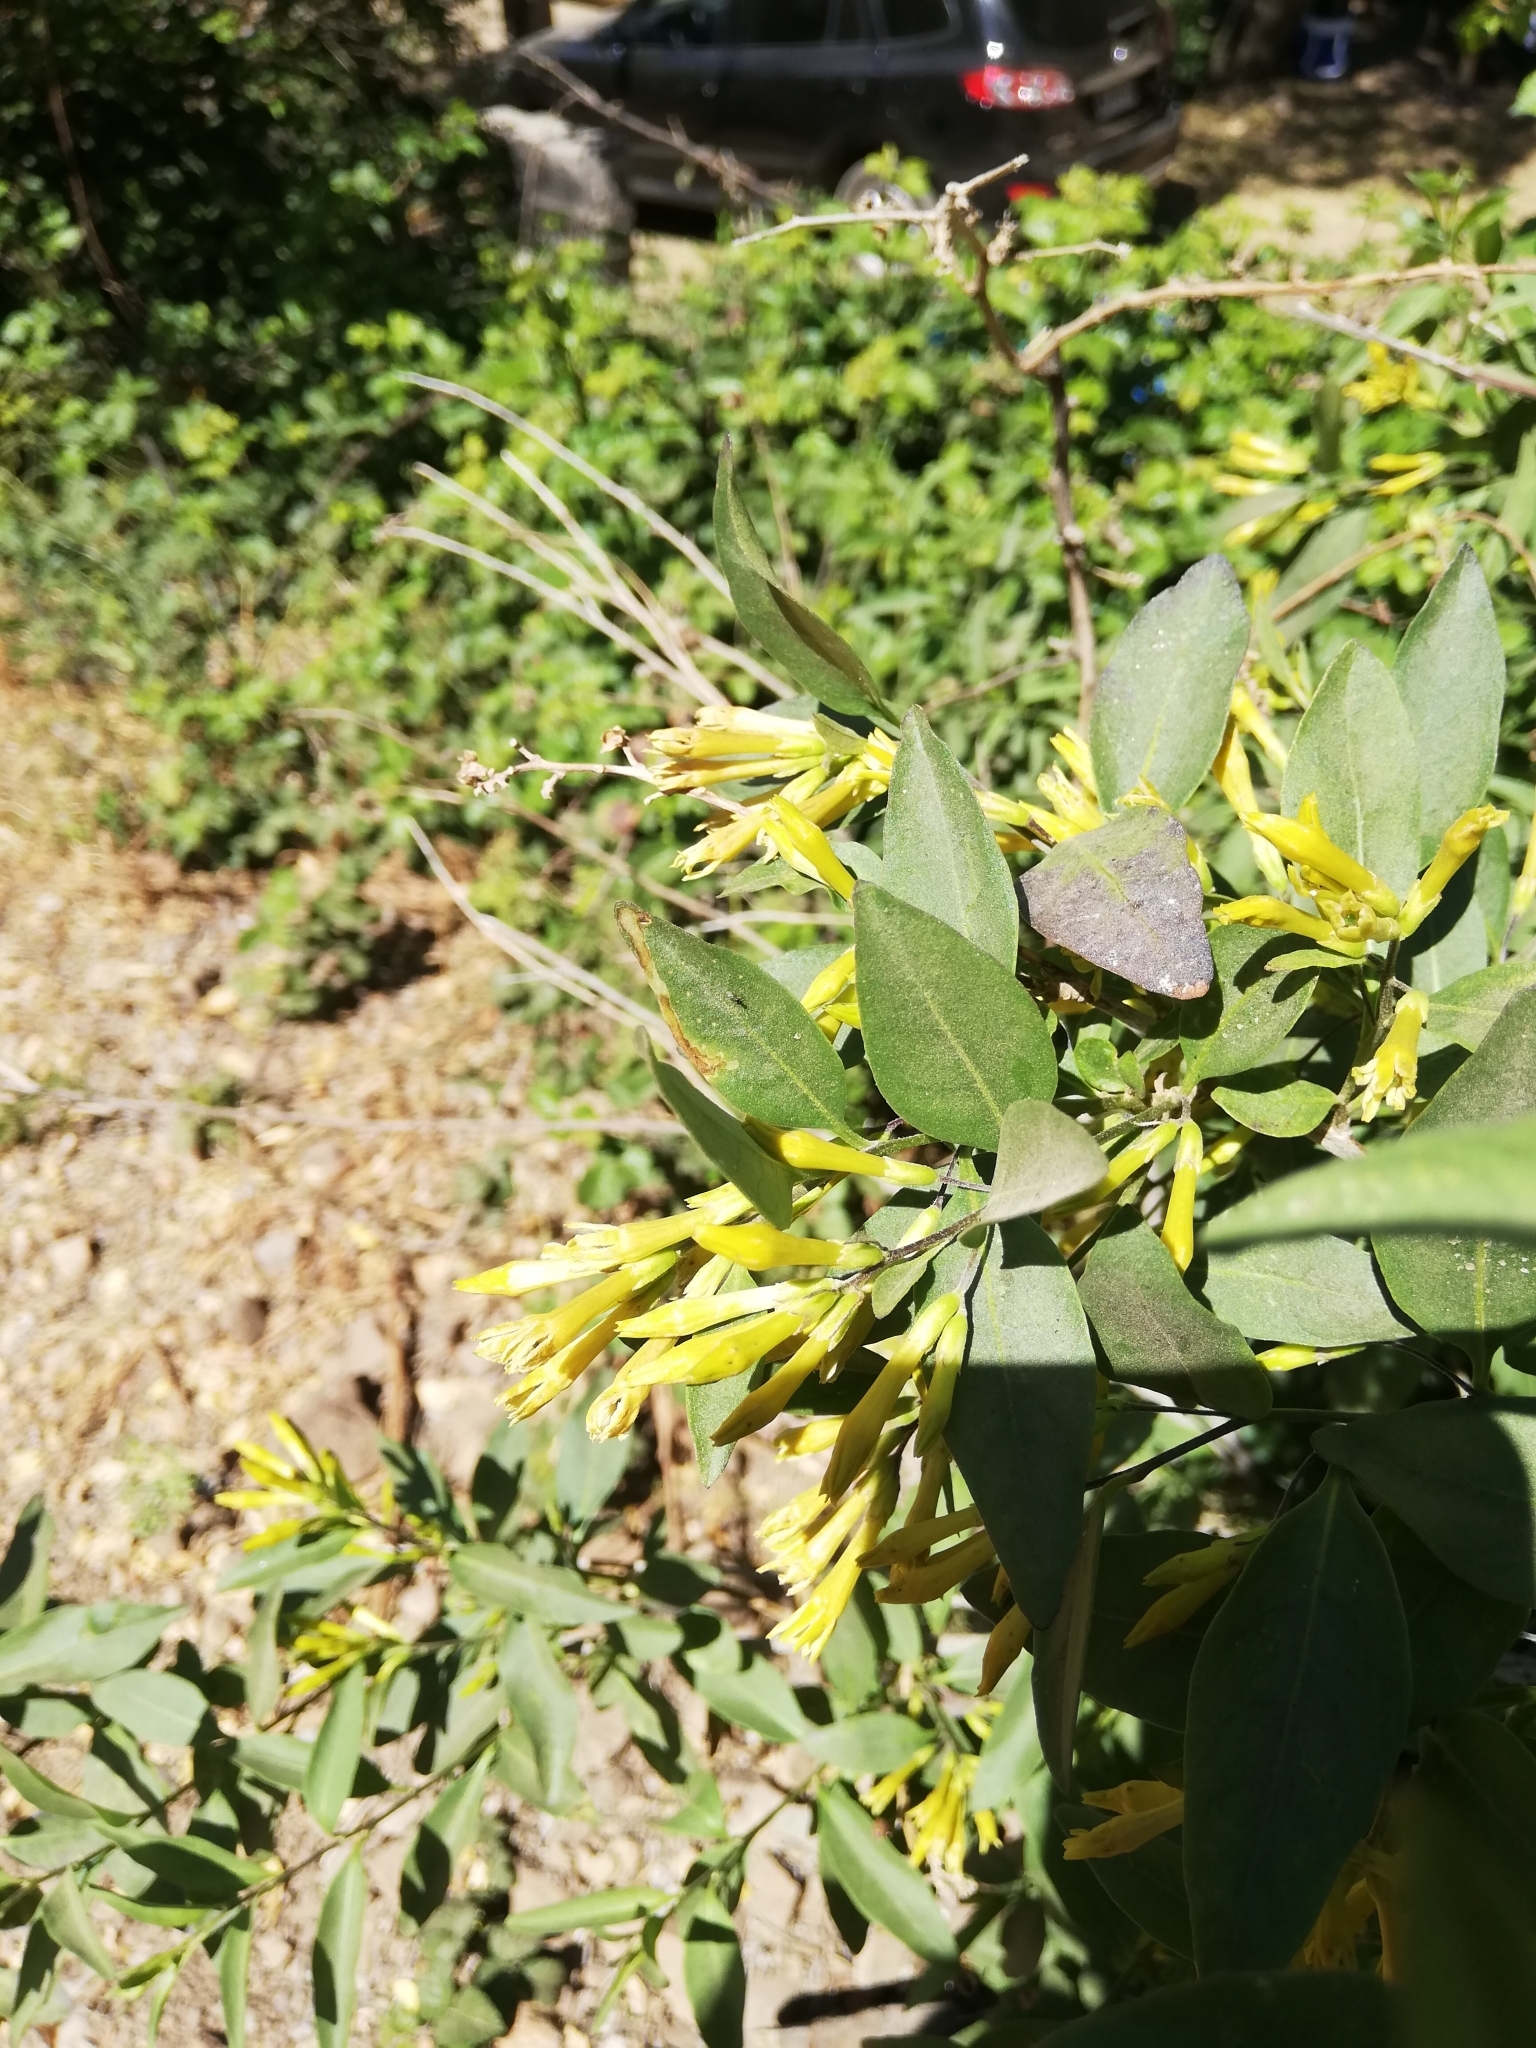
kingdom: Plantae
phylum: Tracheophyta
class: Magnoliopsida
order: Solanales
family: Solanaceae
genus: Cestrum
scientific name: Cestrum parqui
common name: Chilean cestrum
